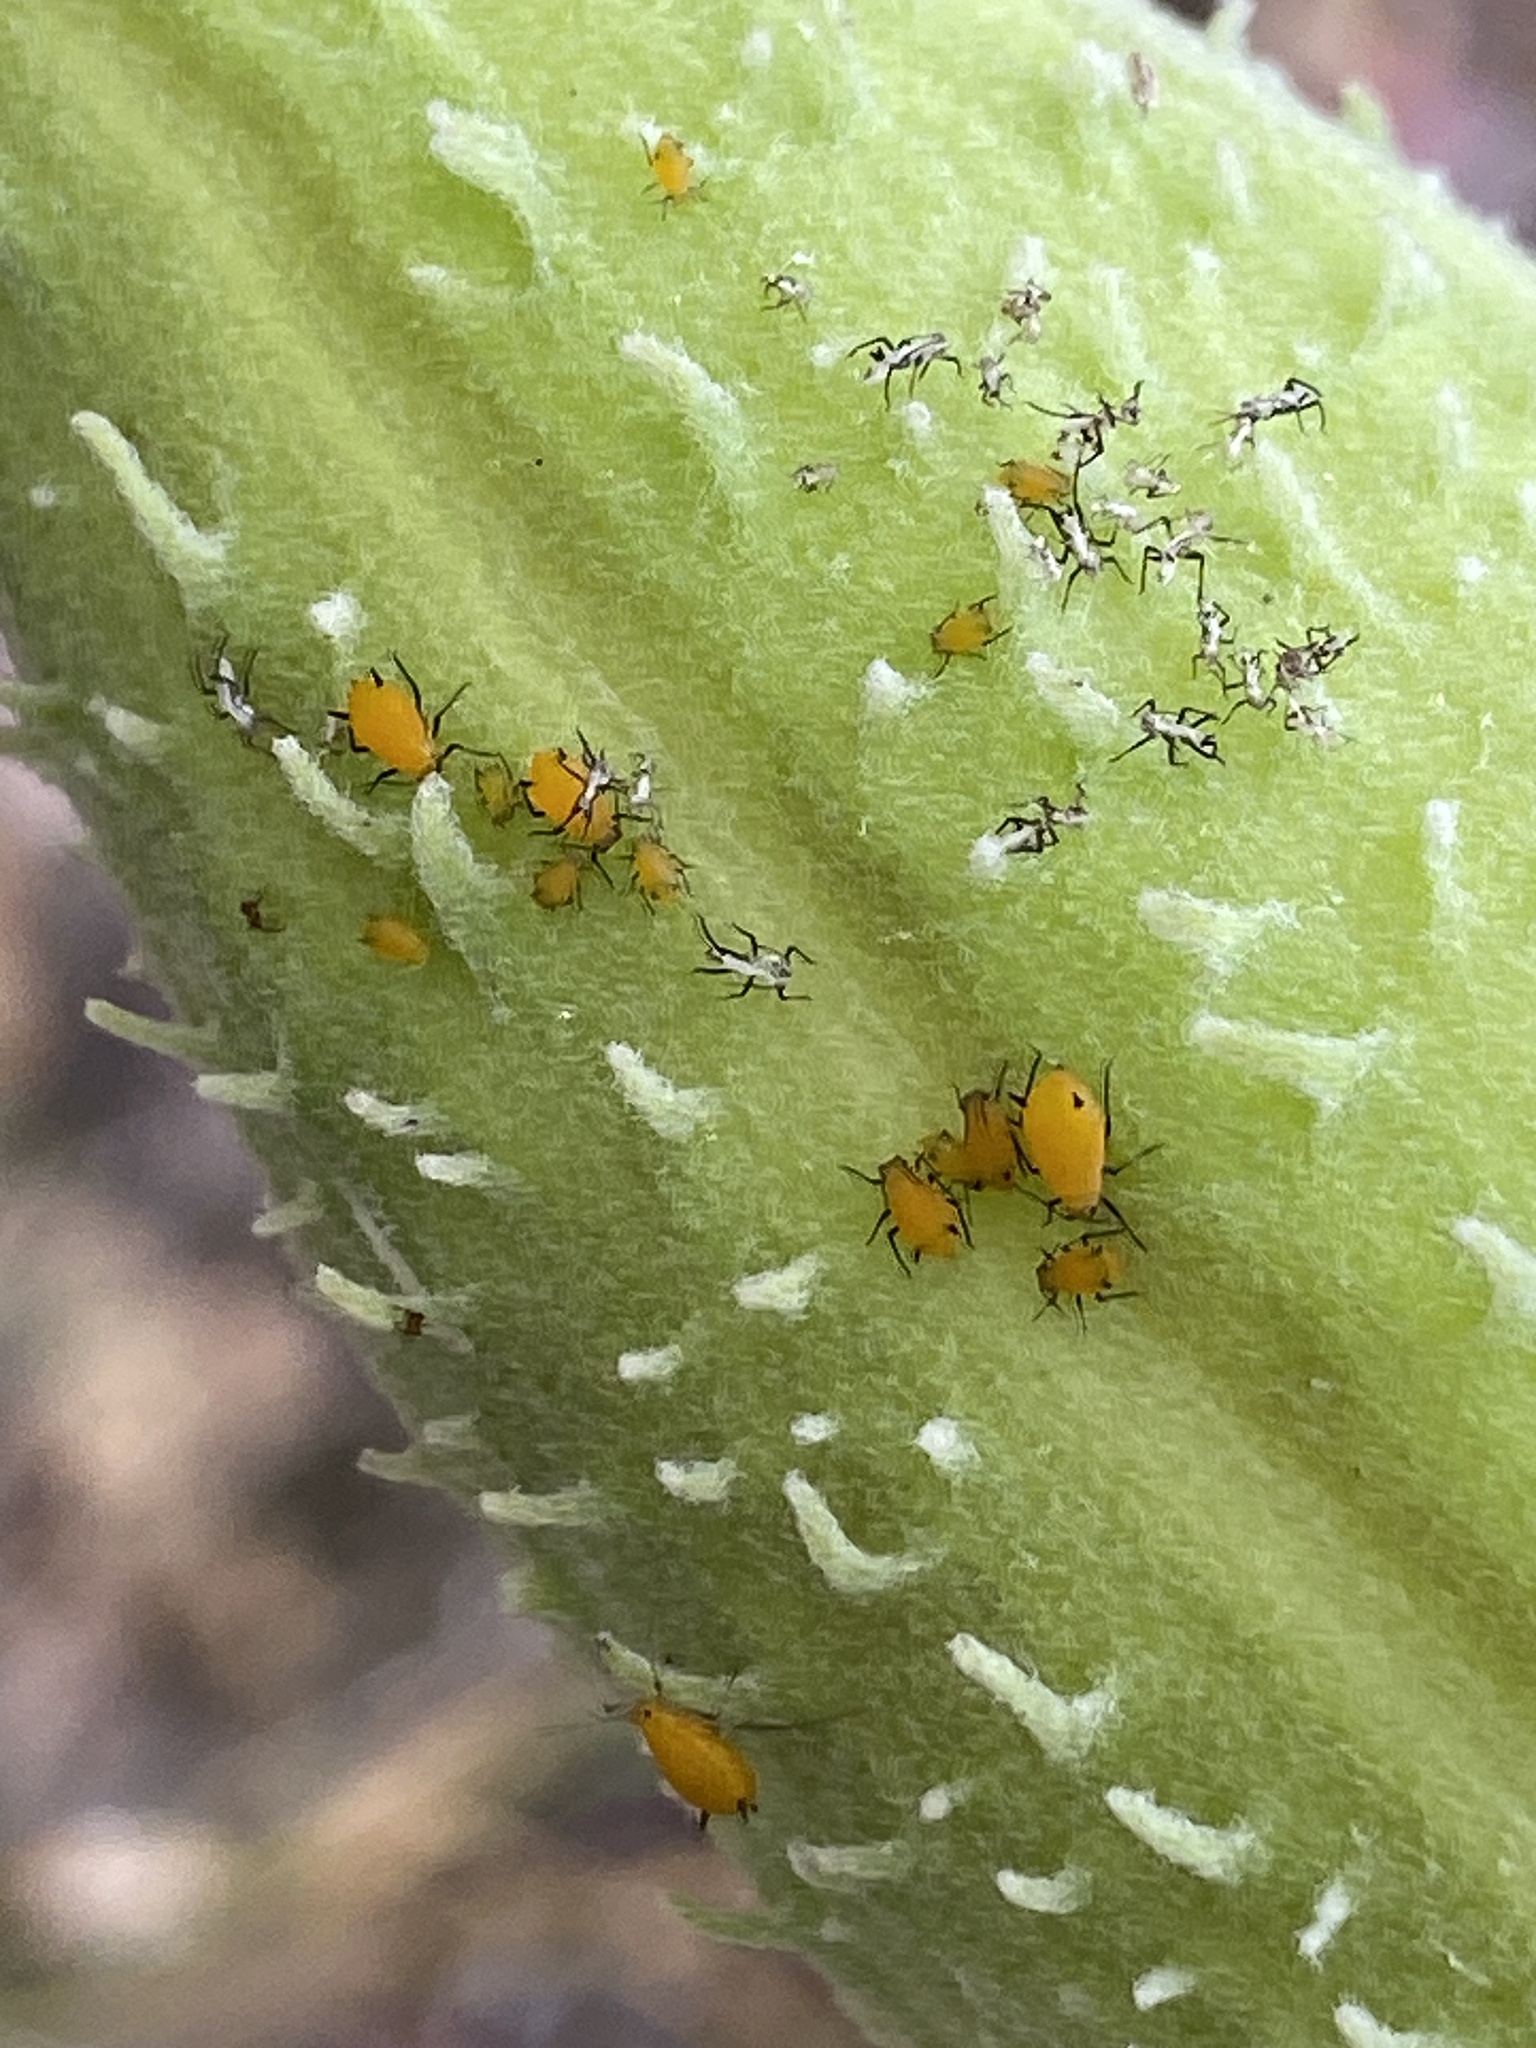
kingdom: Animalia
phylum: Arthropoda
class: Insecta
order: Hemiptera
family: Aphididae
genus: Aphis
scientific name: Aphis nerii
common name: Oleander aphid
